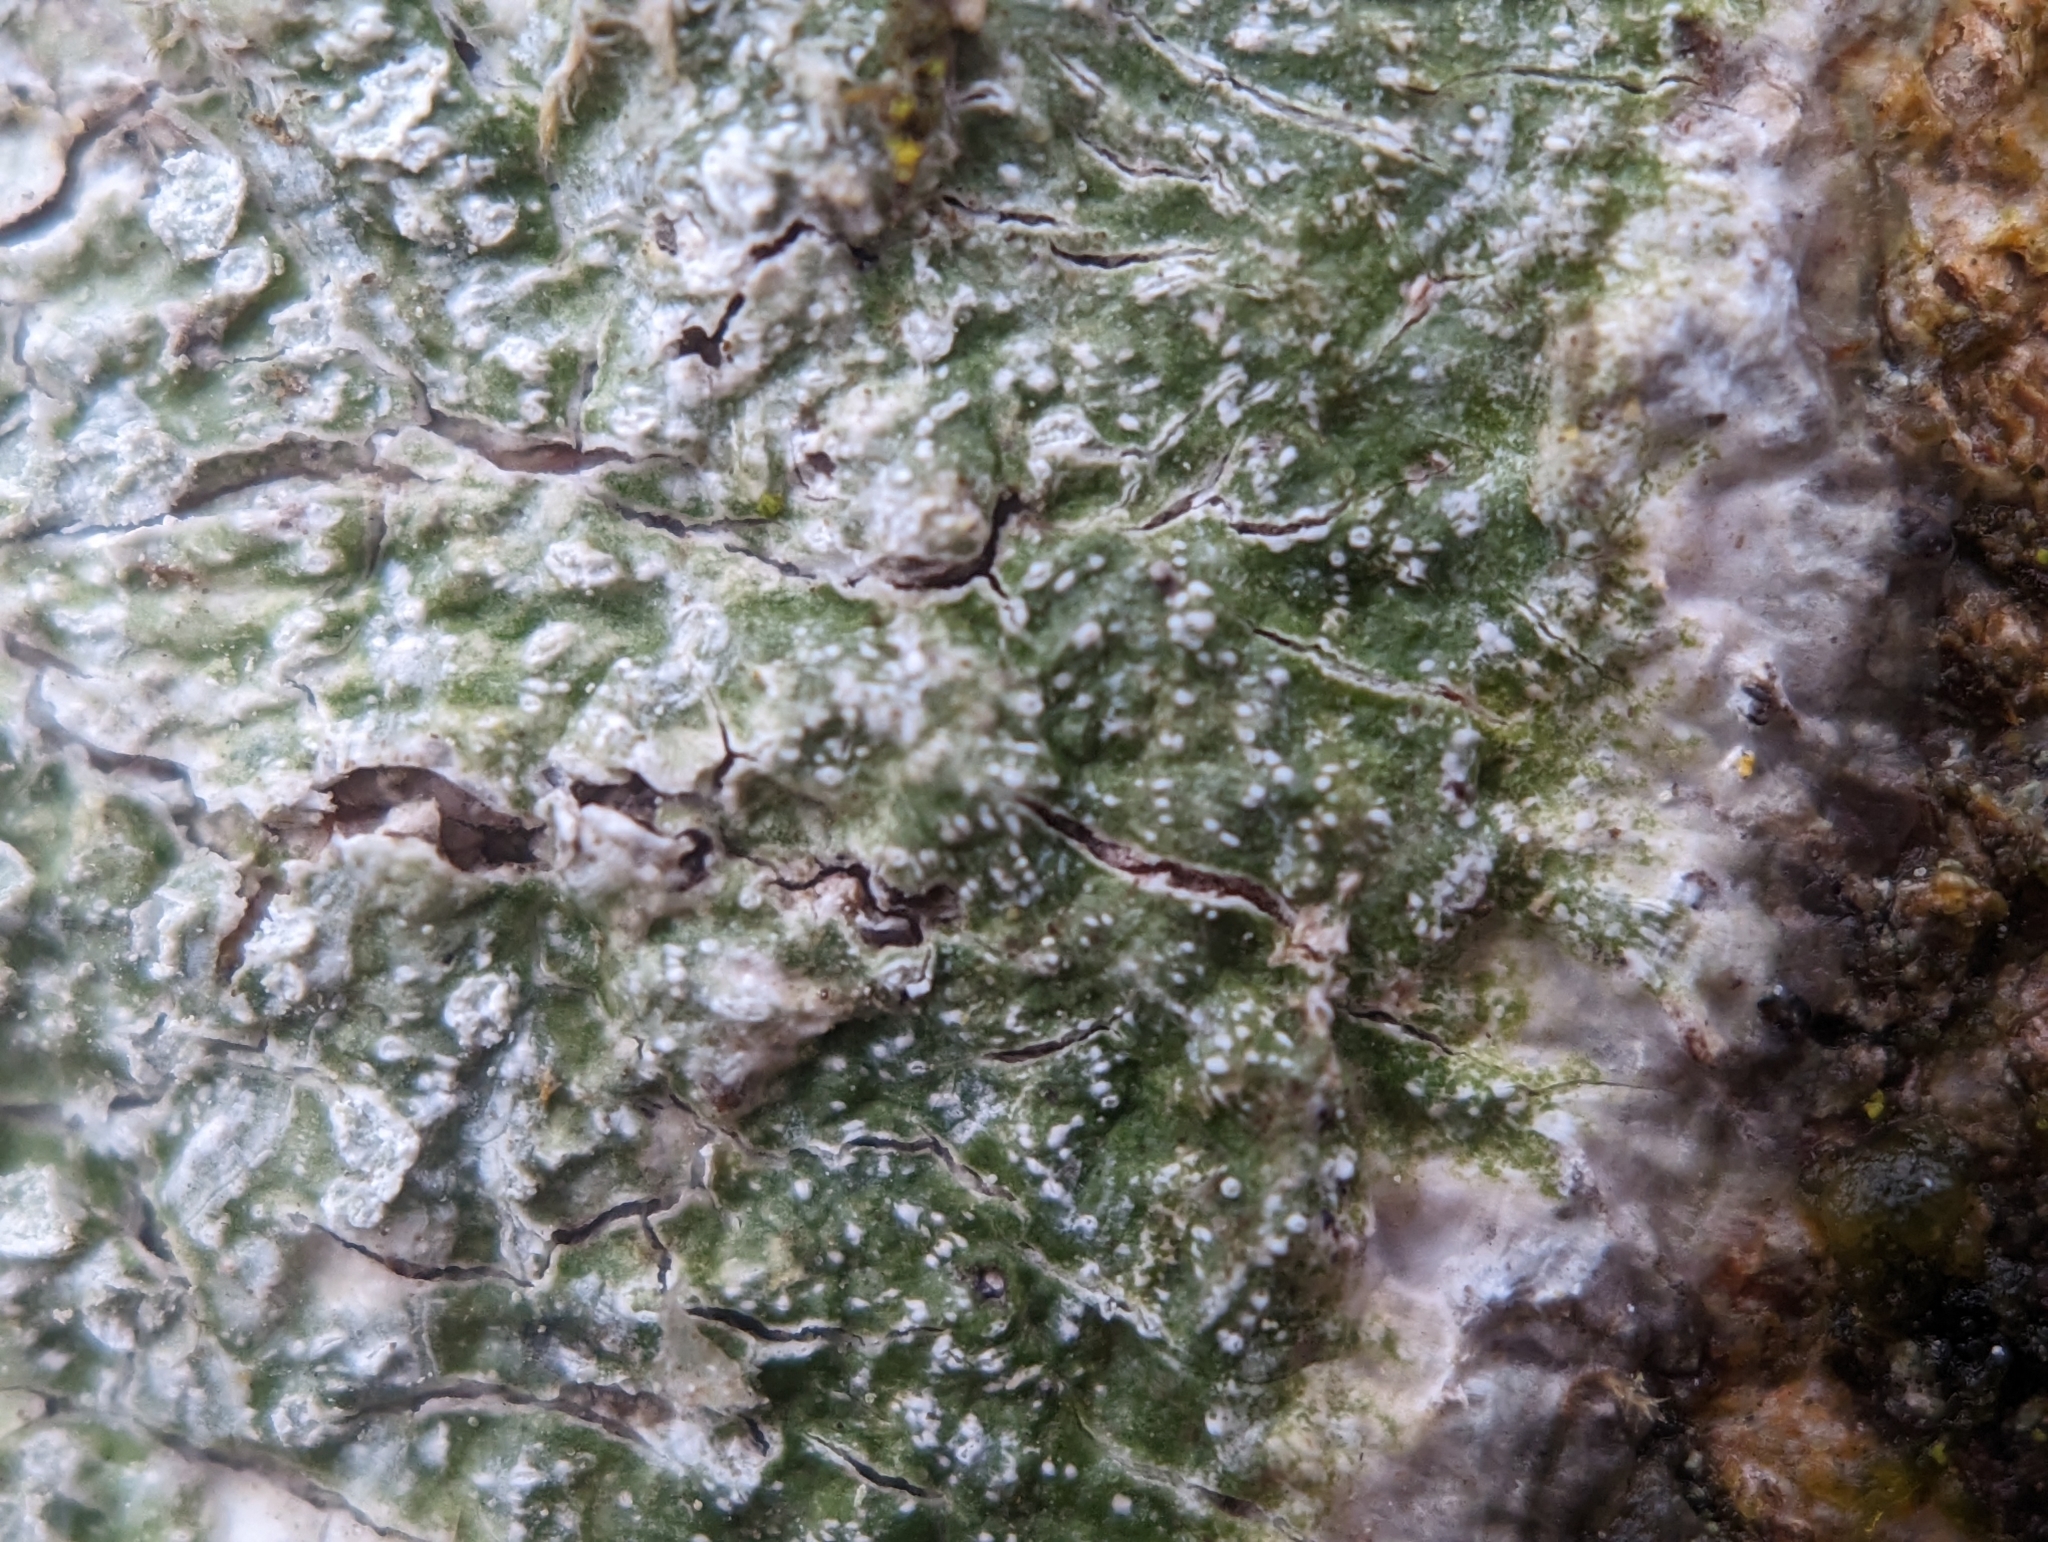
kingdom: Fungi
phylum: Ascomycota
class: Lecanoromycetes
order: Pertusariales
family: Pertusariaceae
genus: Lepra
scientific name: Lepra albescens
